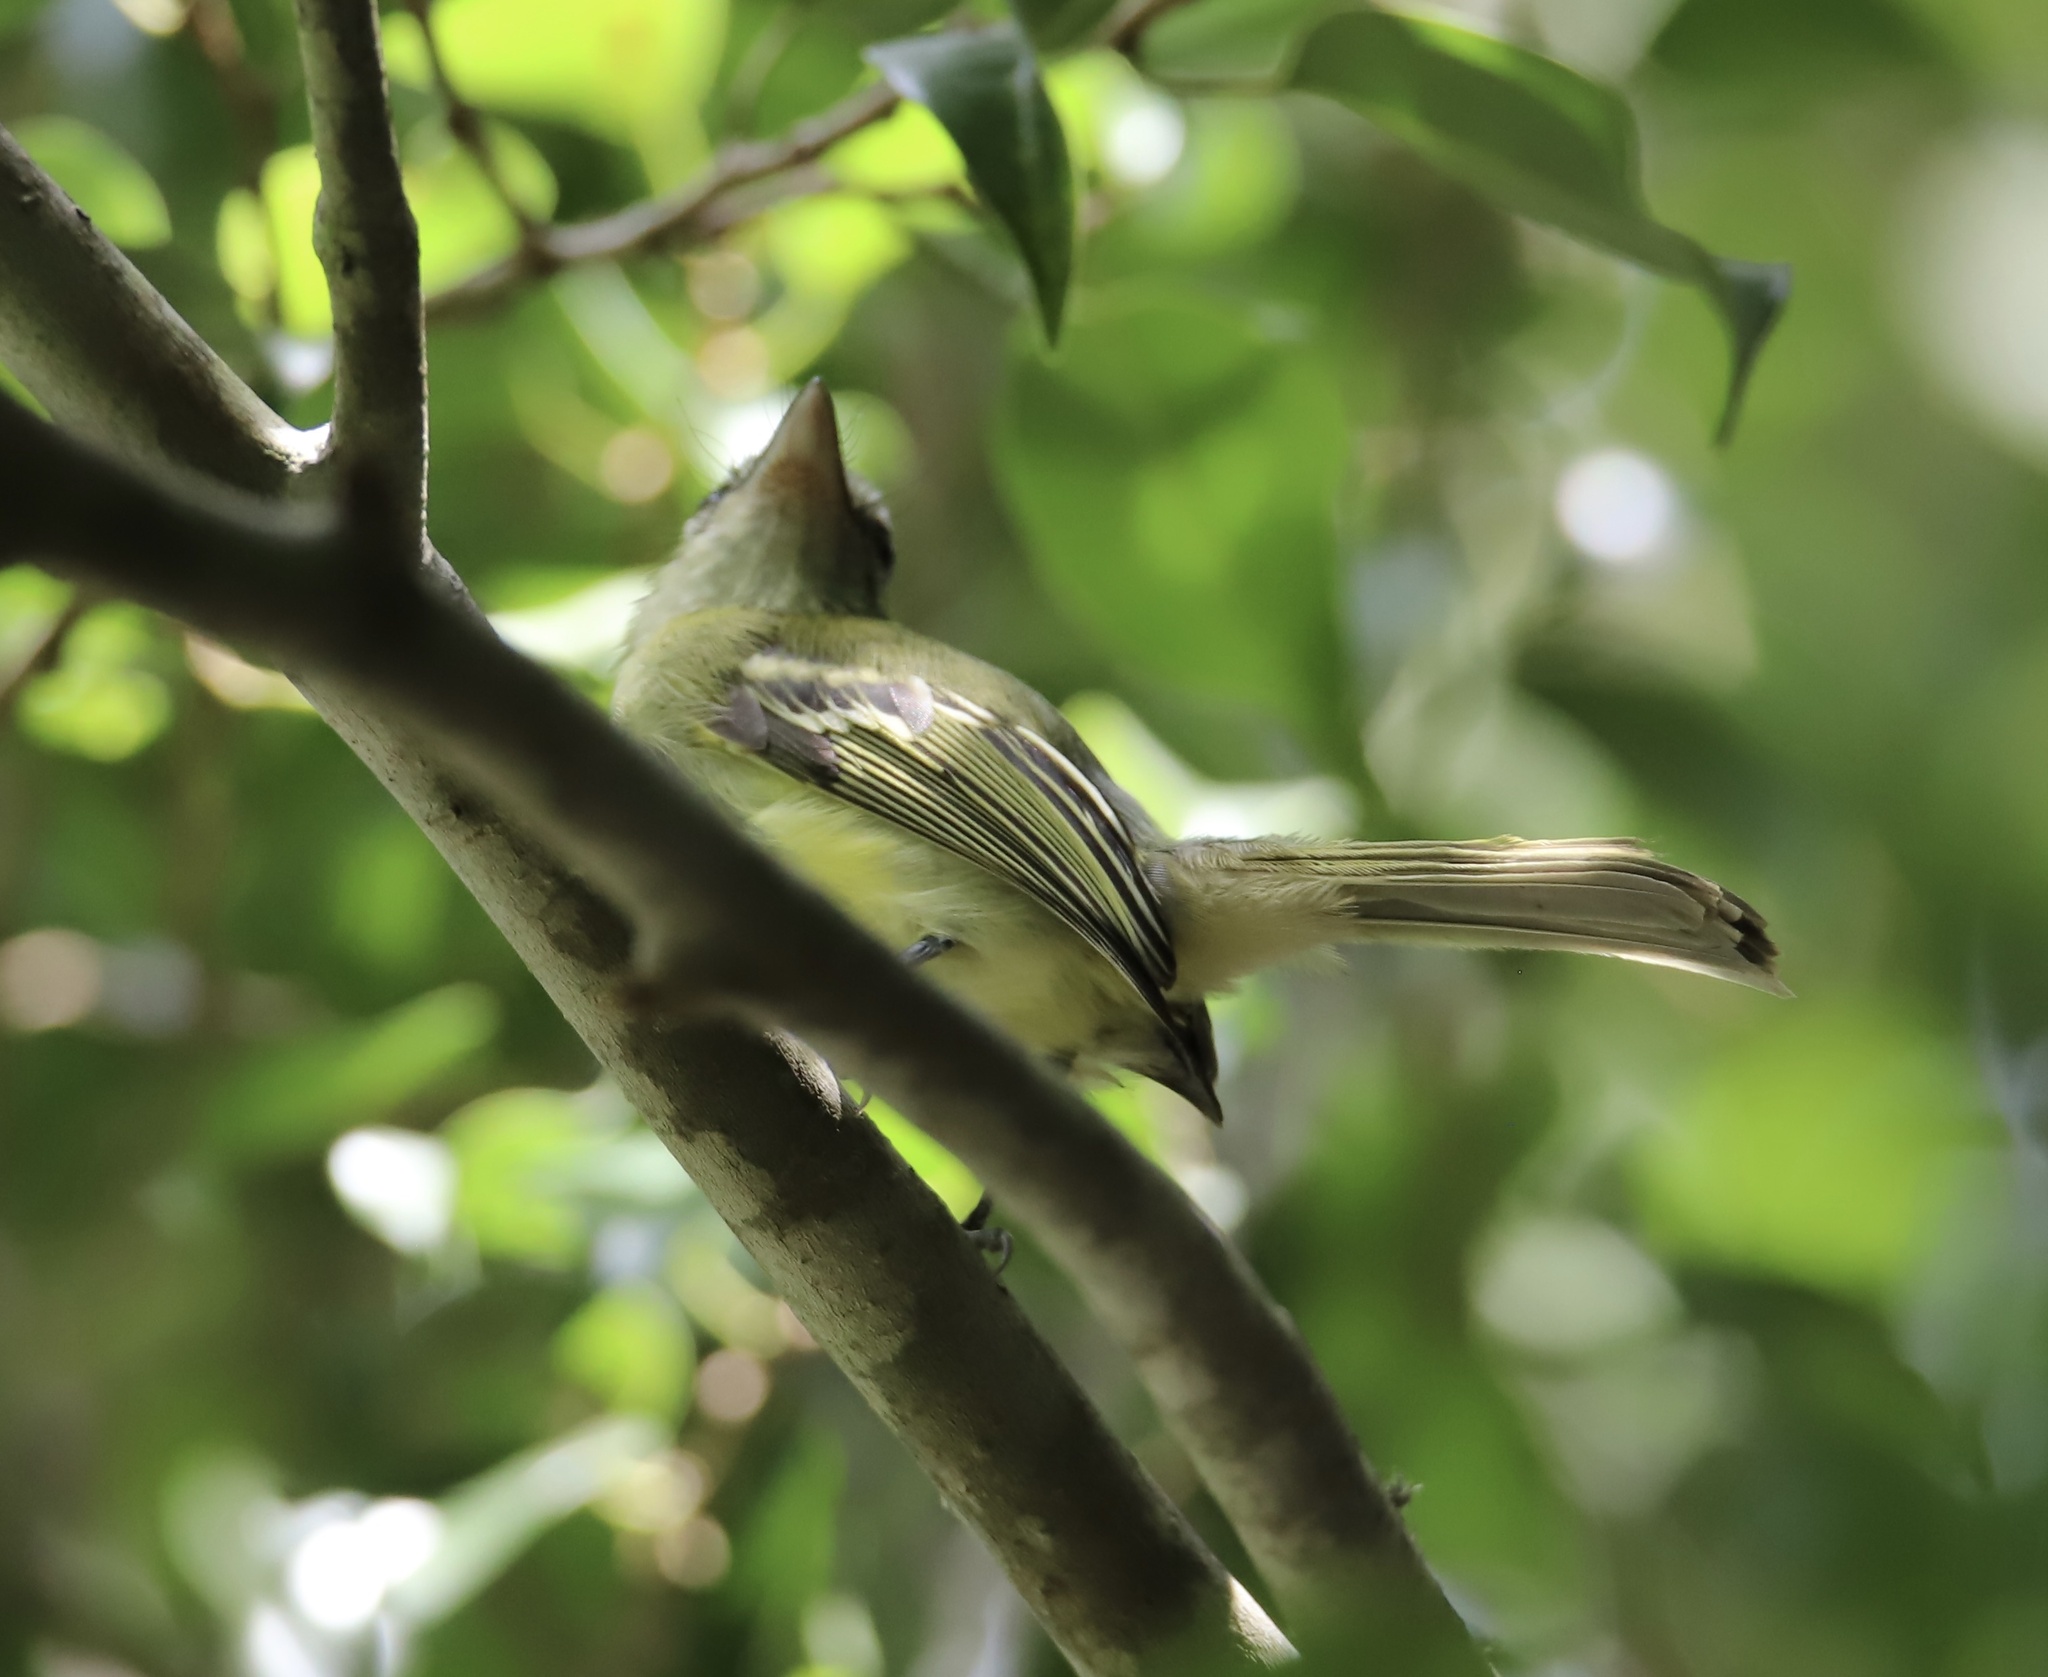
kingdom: Animalia
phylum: Chordata
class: Aves
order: Passeriformes
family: Tyrannidae
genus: Tolmomyias
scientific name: Tolmomyias sulphurescens
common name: Yellow-olive flycatcher
